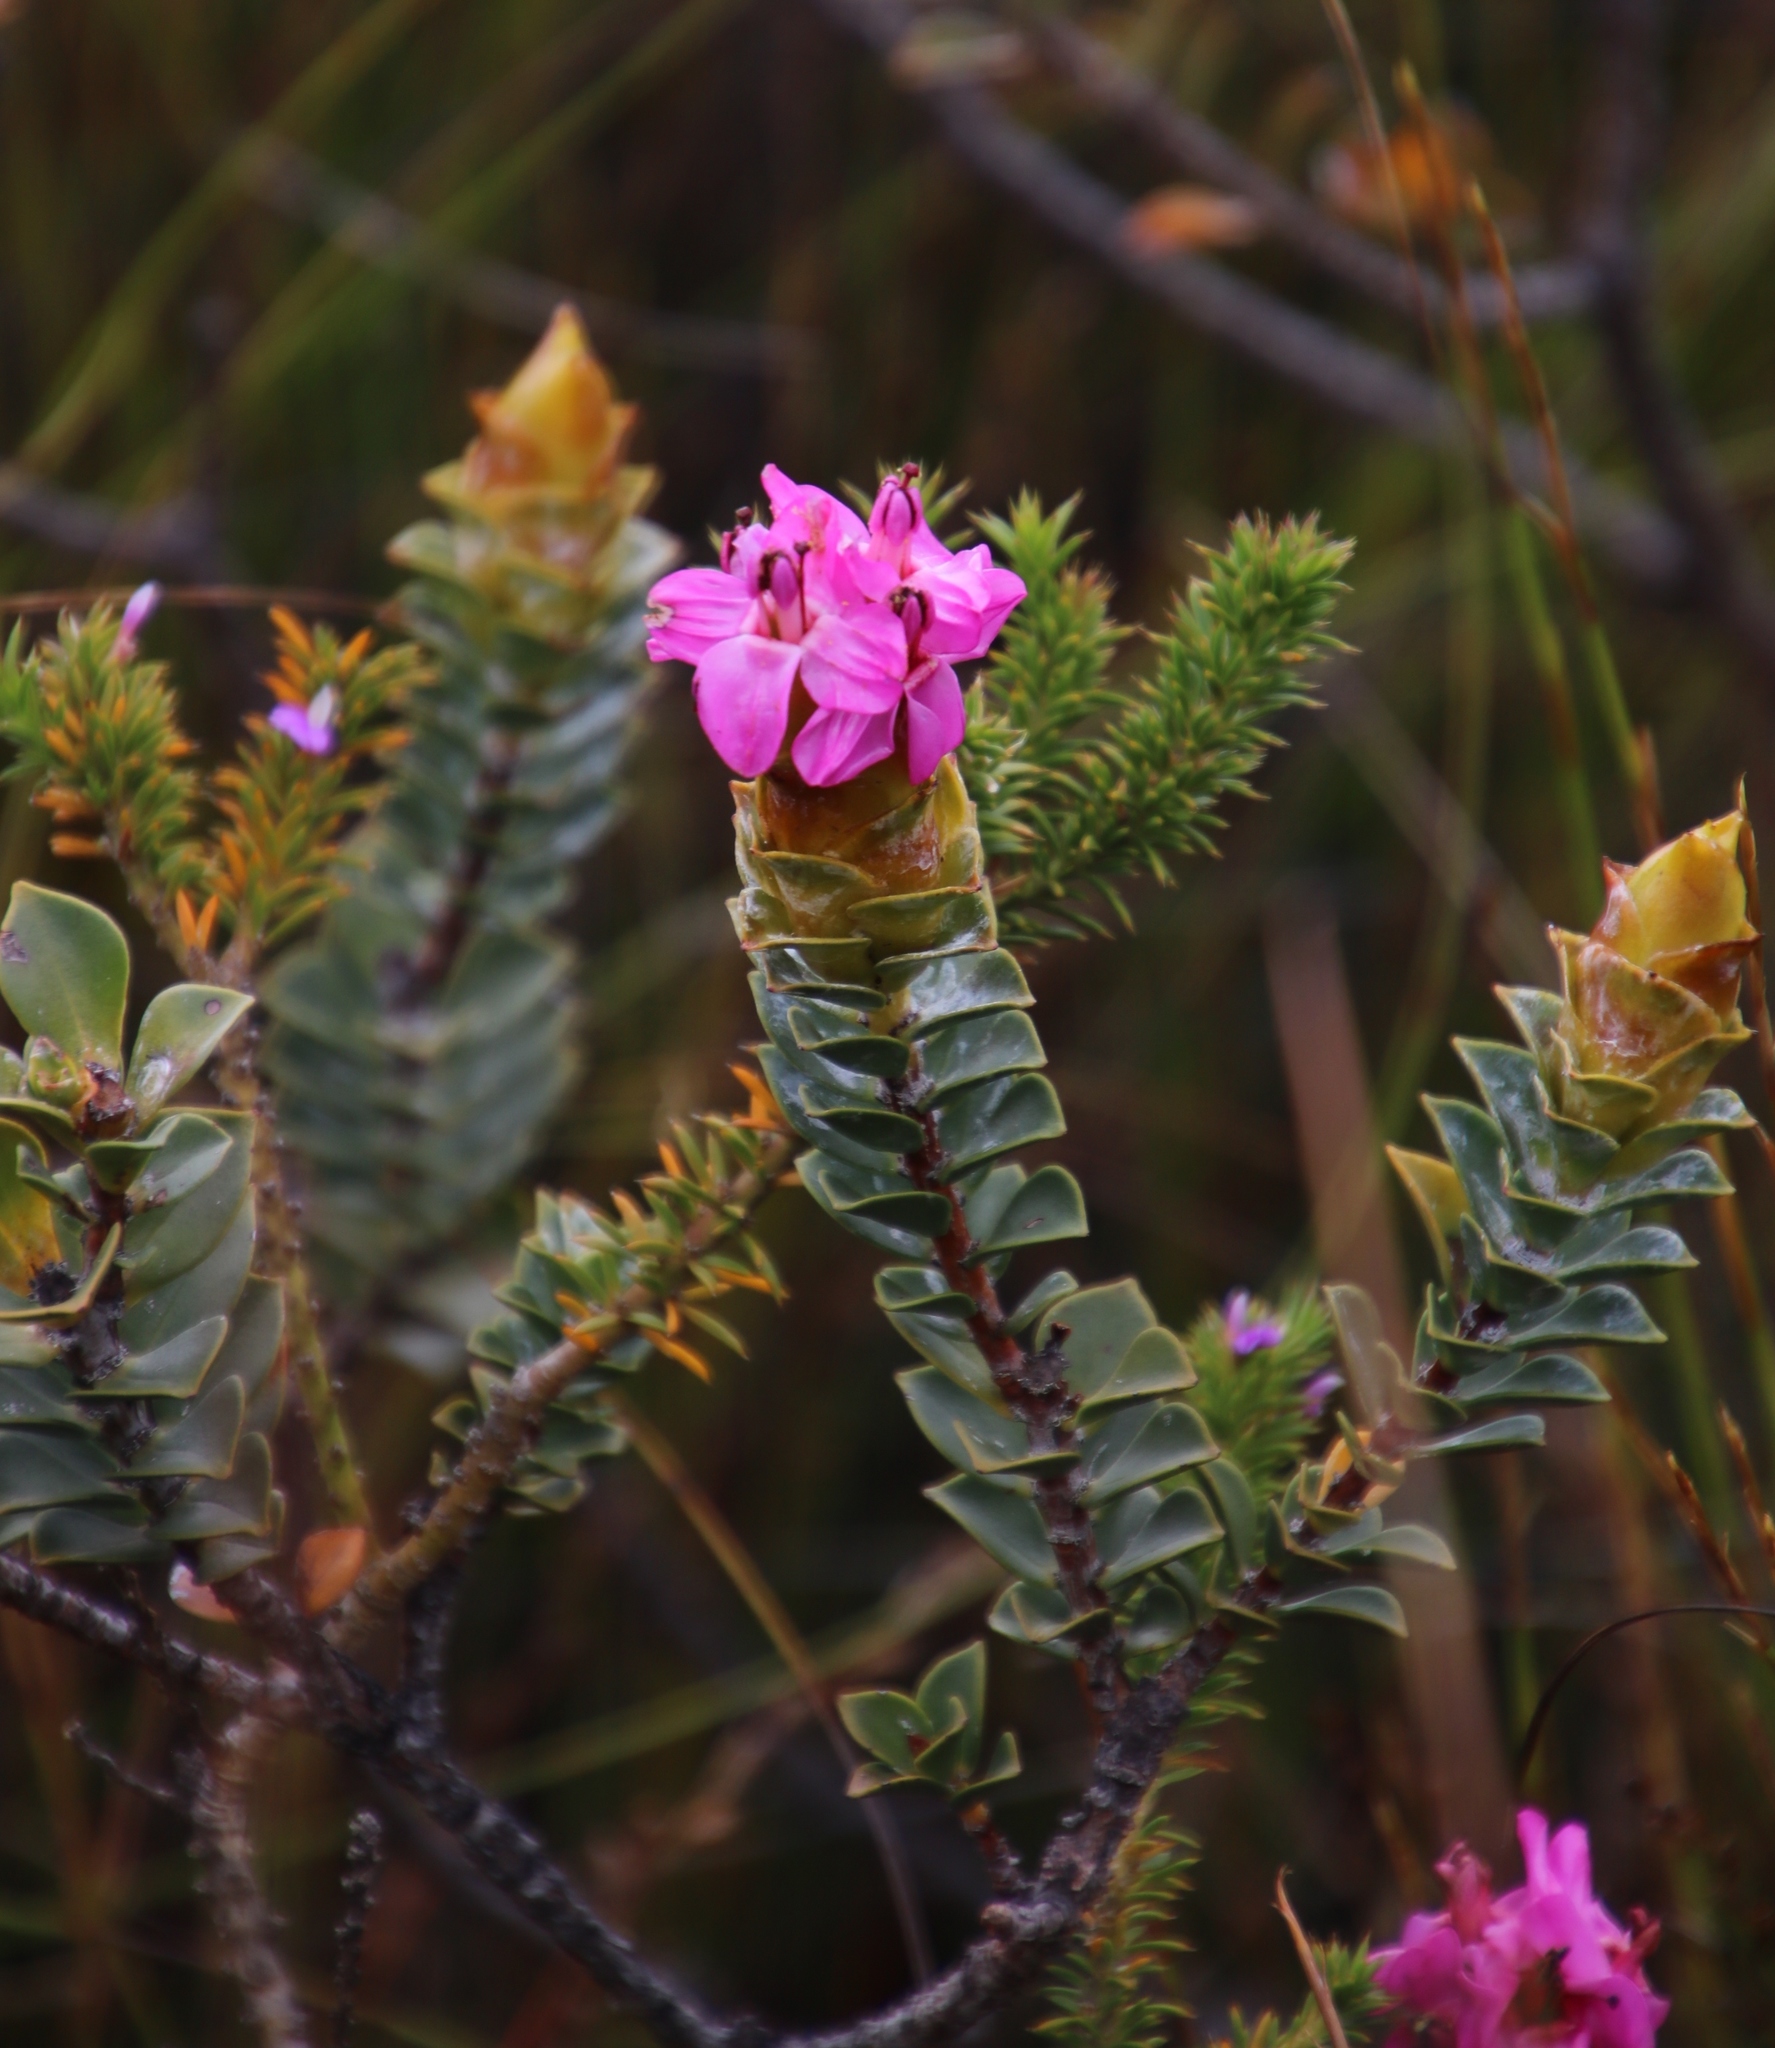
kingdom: Plantae
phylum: Tracheophyta
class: Magnoliopsida
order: Myrtales
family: Penaeaceae
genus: Saltera
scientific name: Saltera sarcocolla
